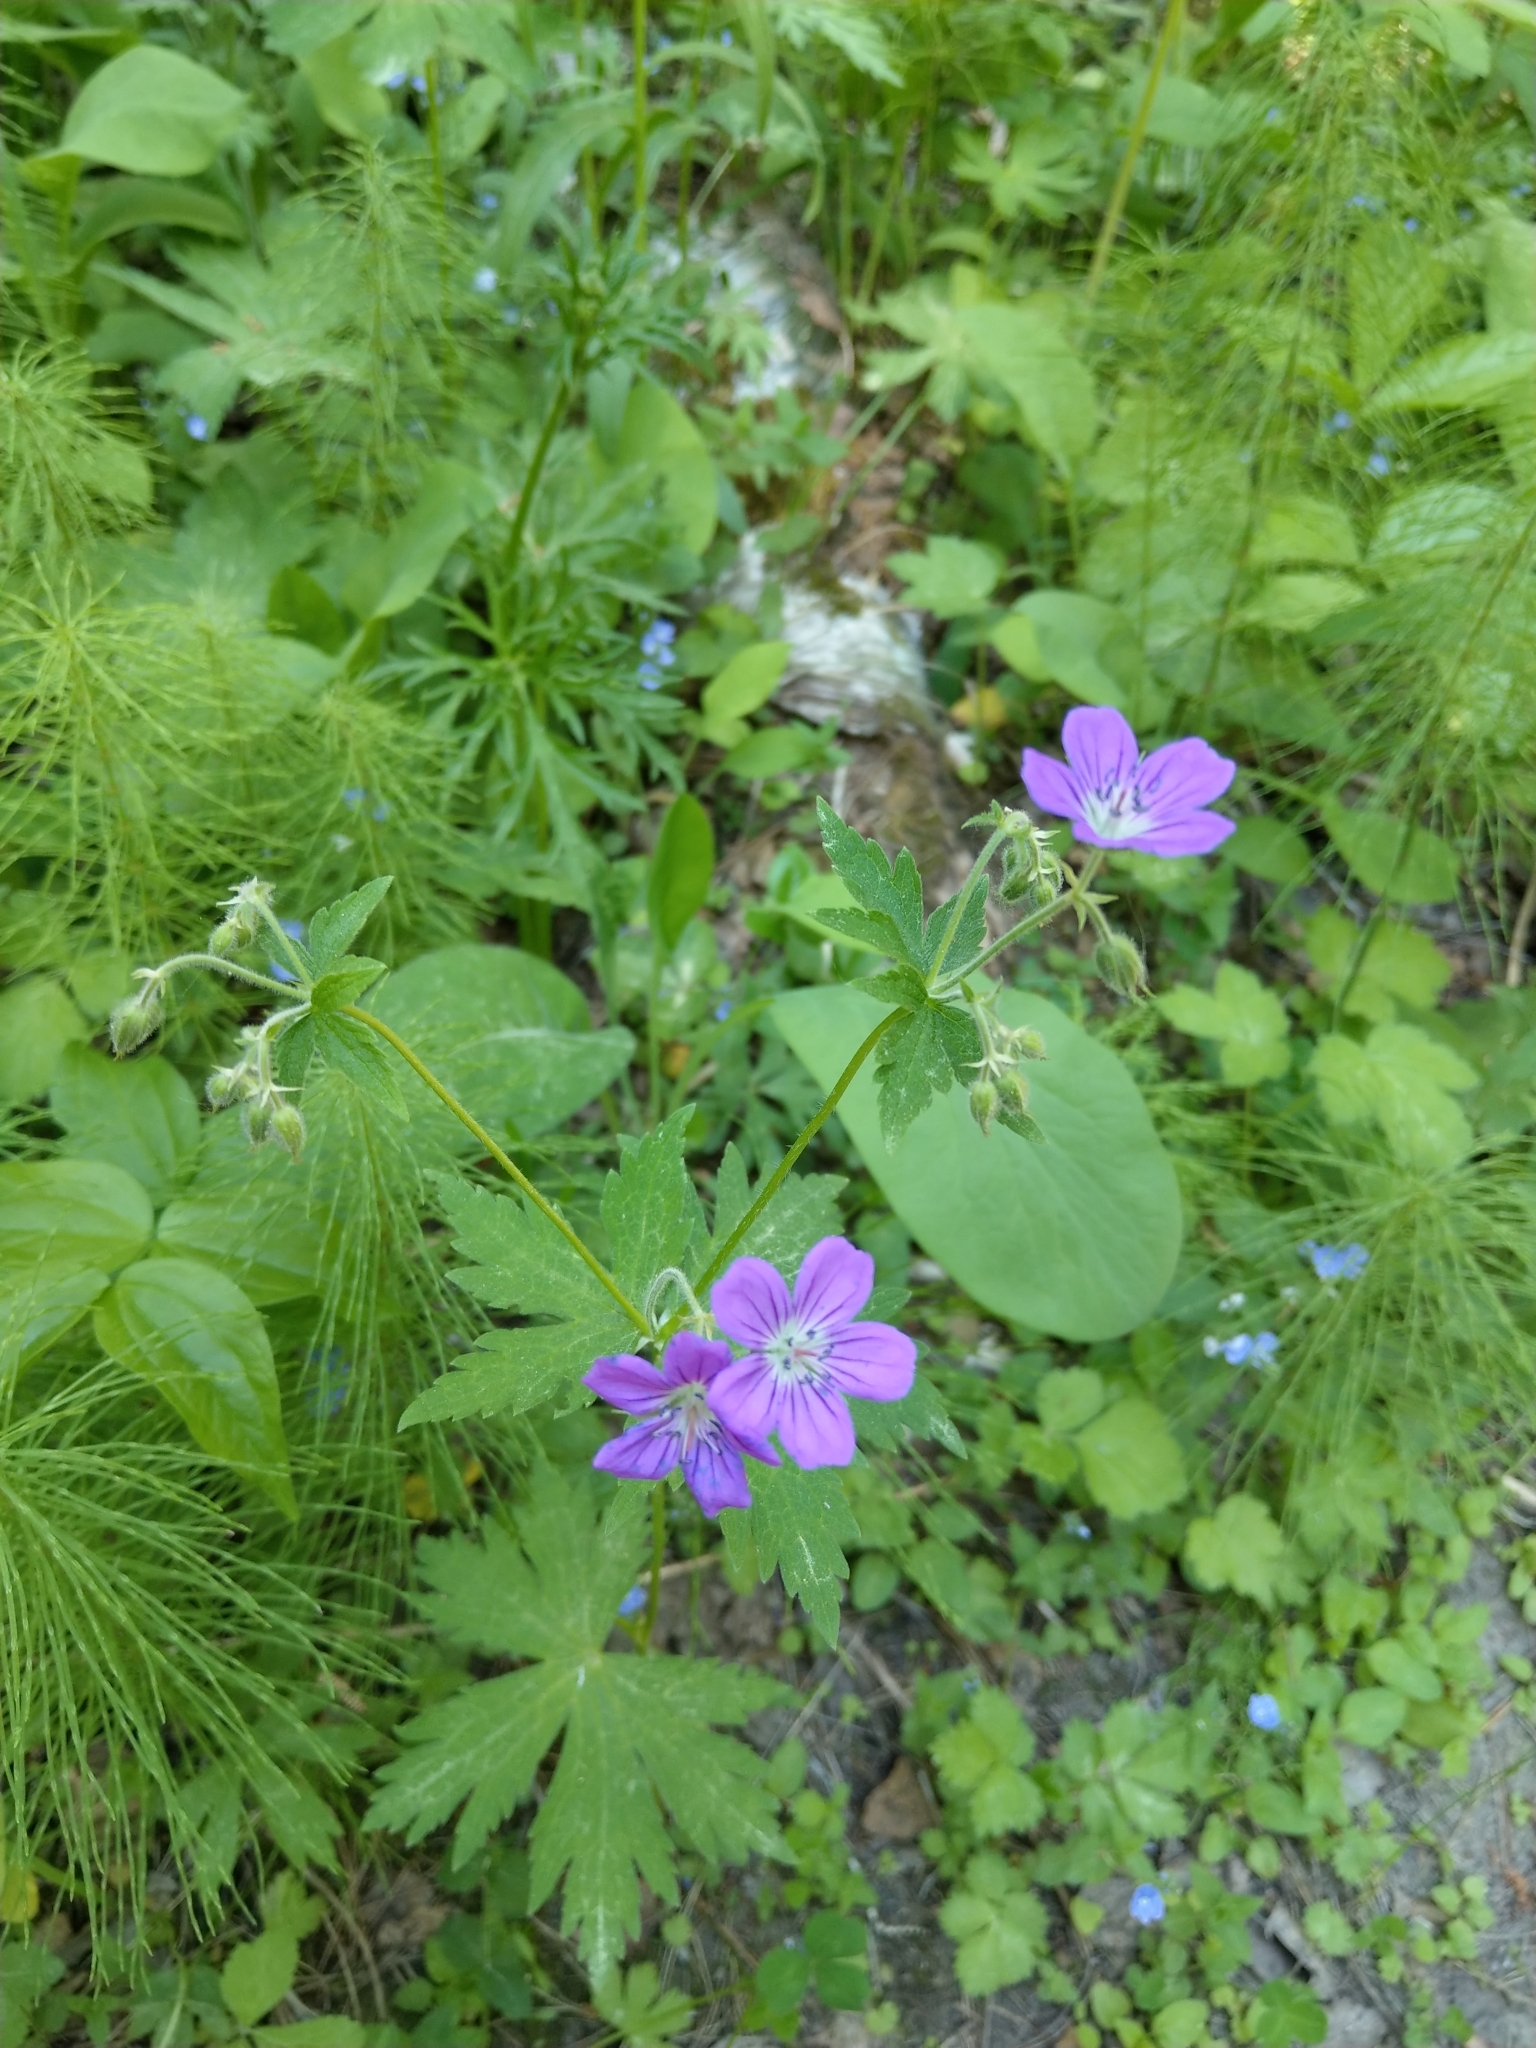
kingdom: Plantae
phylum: Tracheophyta
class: Magnoliopsida
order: Geraniales
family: Geraniaceae
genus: Geranium
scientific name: Geranium sylvaticum
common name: Wood crane's-bill
